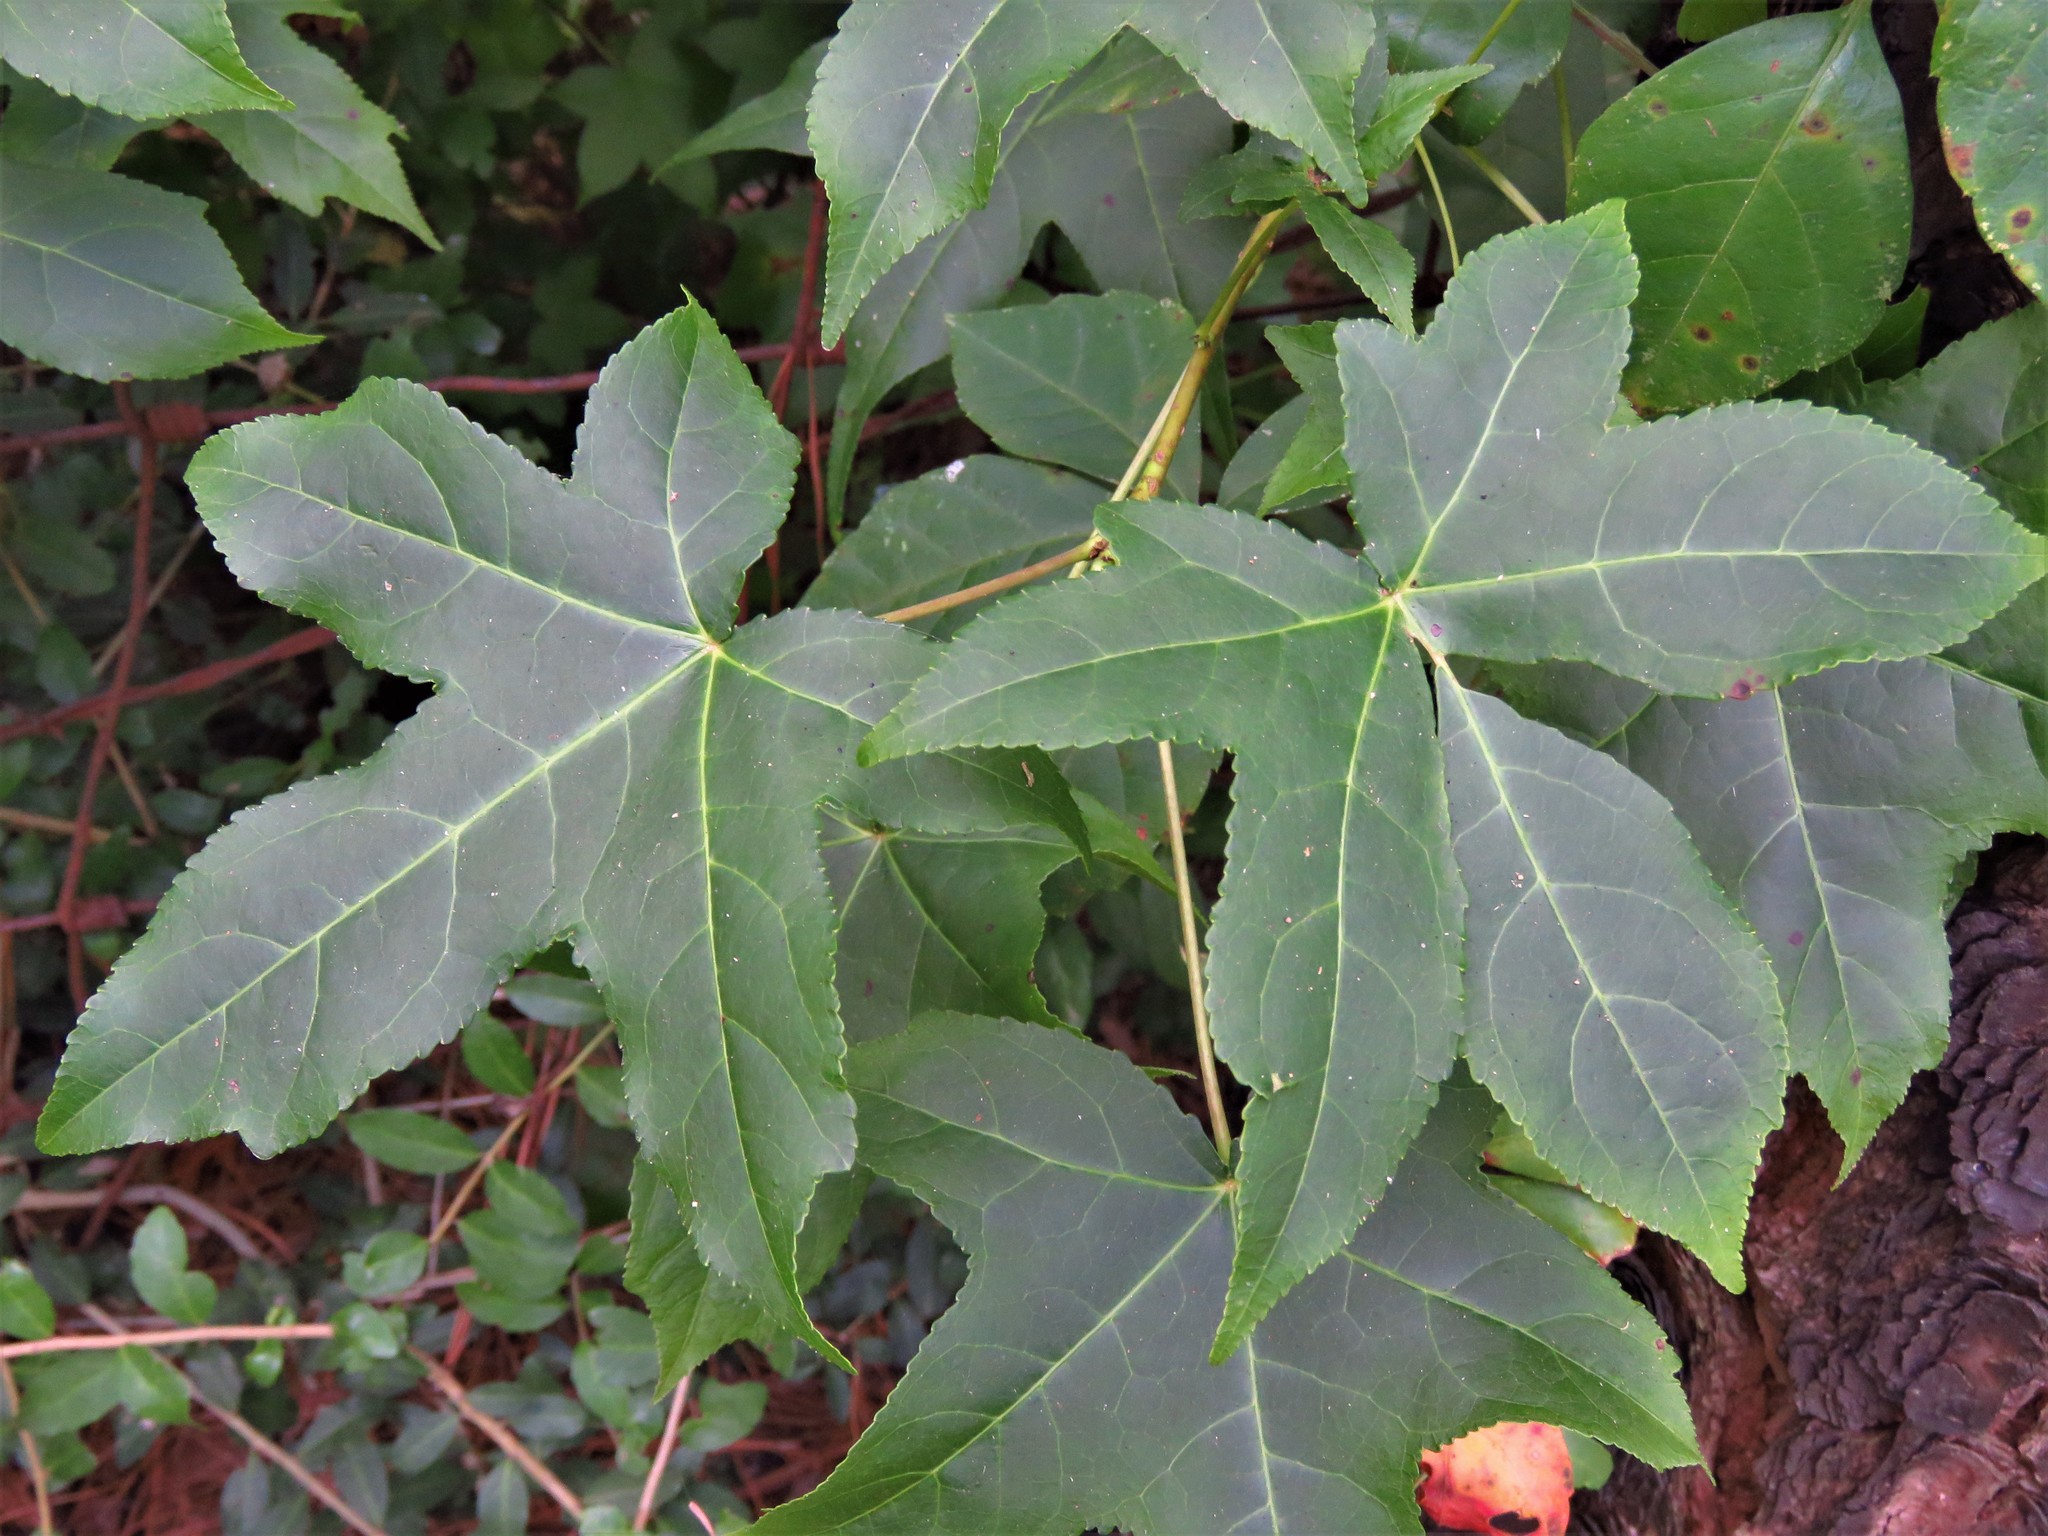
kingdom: Plantae
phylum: Tracheophyta
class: Magnoliopsida
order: Saxifragales
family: Altingiaceae
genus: Liquidambar
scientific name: Liquidambar styraciflua
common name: Sweet gum
